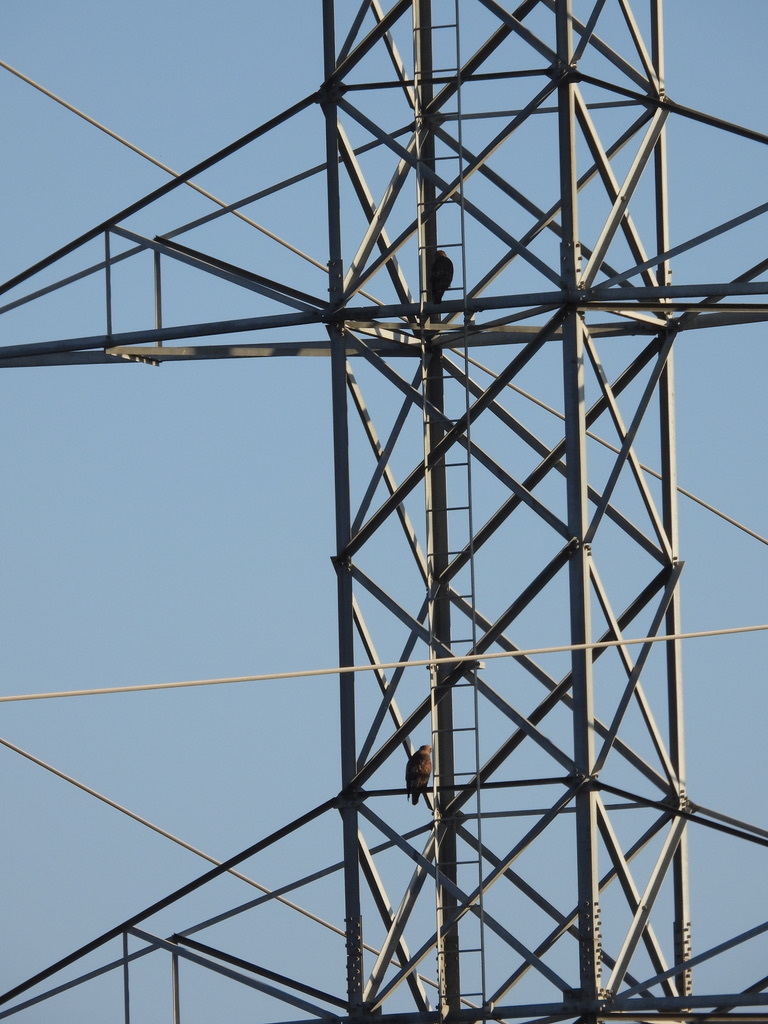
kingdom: Animalia
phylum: Chordata
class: Aves
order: Accipitriformes
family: Accipitridae
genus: Buteo
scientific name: Buteo jamaicensis
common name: Red-tailed hawk
